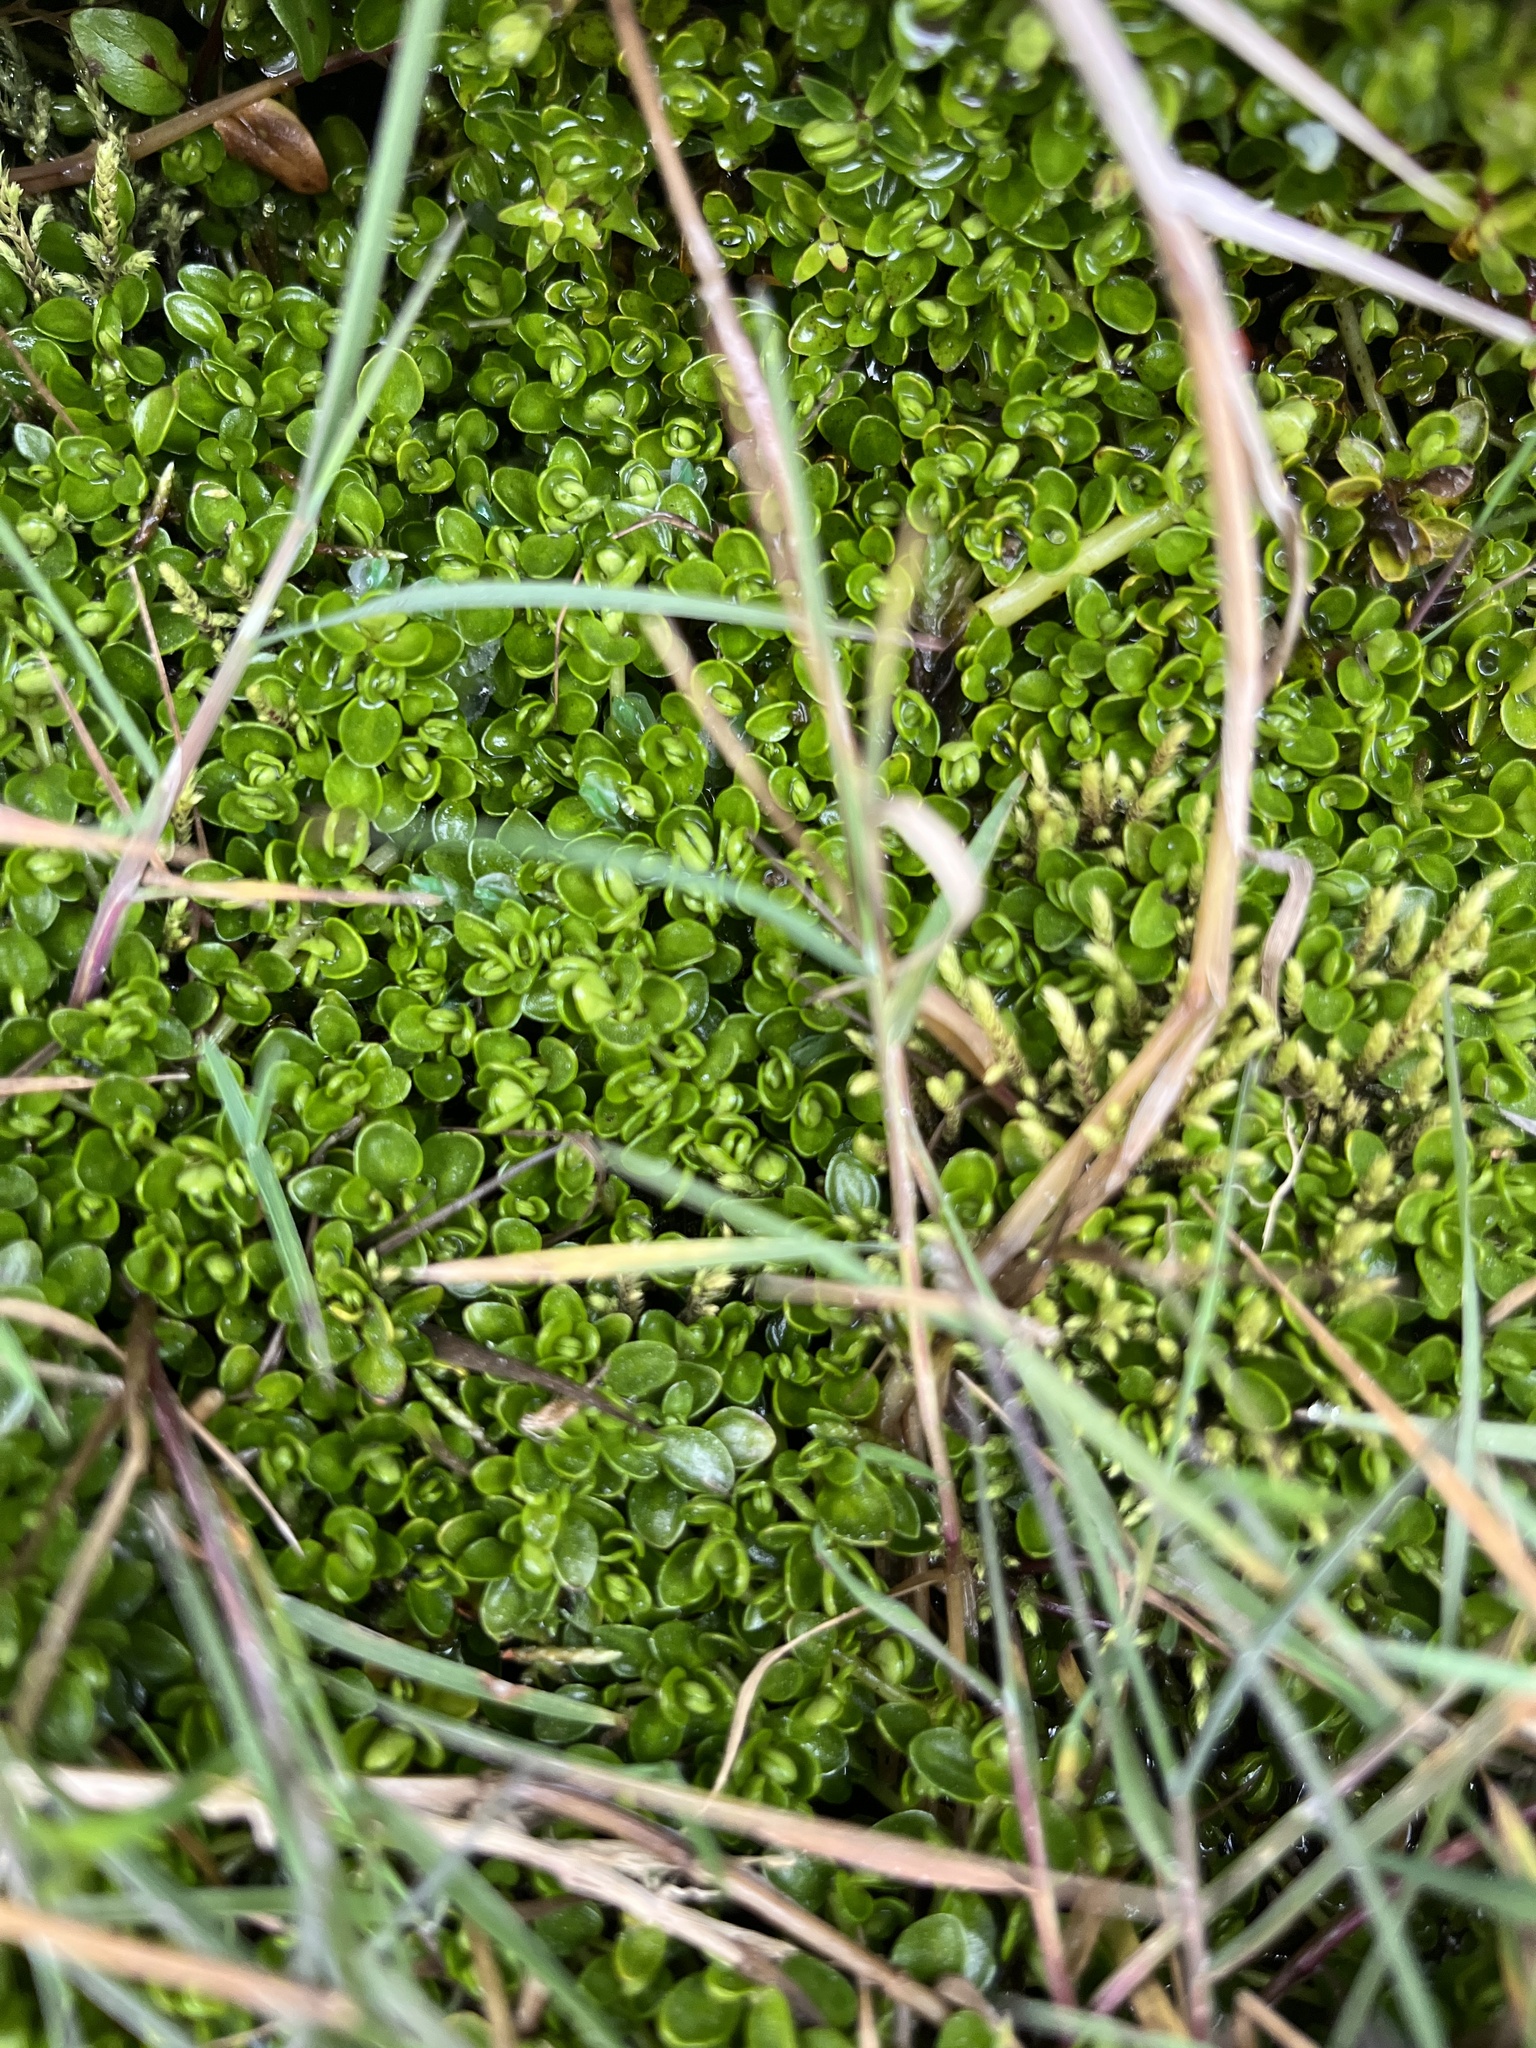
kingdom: Plantae
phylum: Tracheophyta
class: Magnoliopsida
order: Gentianales
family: Rubiaceae
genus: Nertera
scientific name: Nertera granadensis
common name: Beadplant
